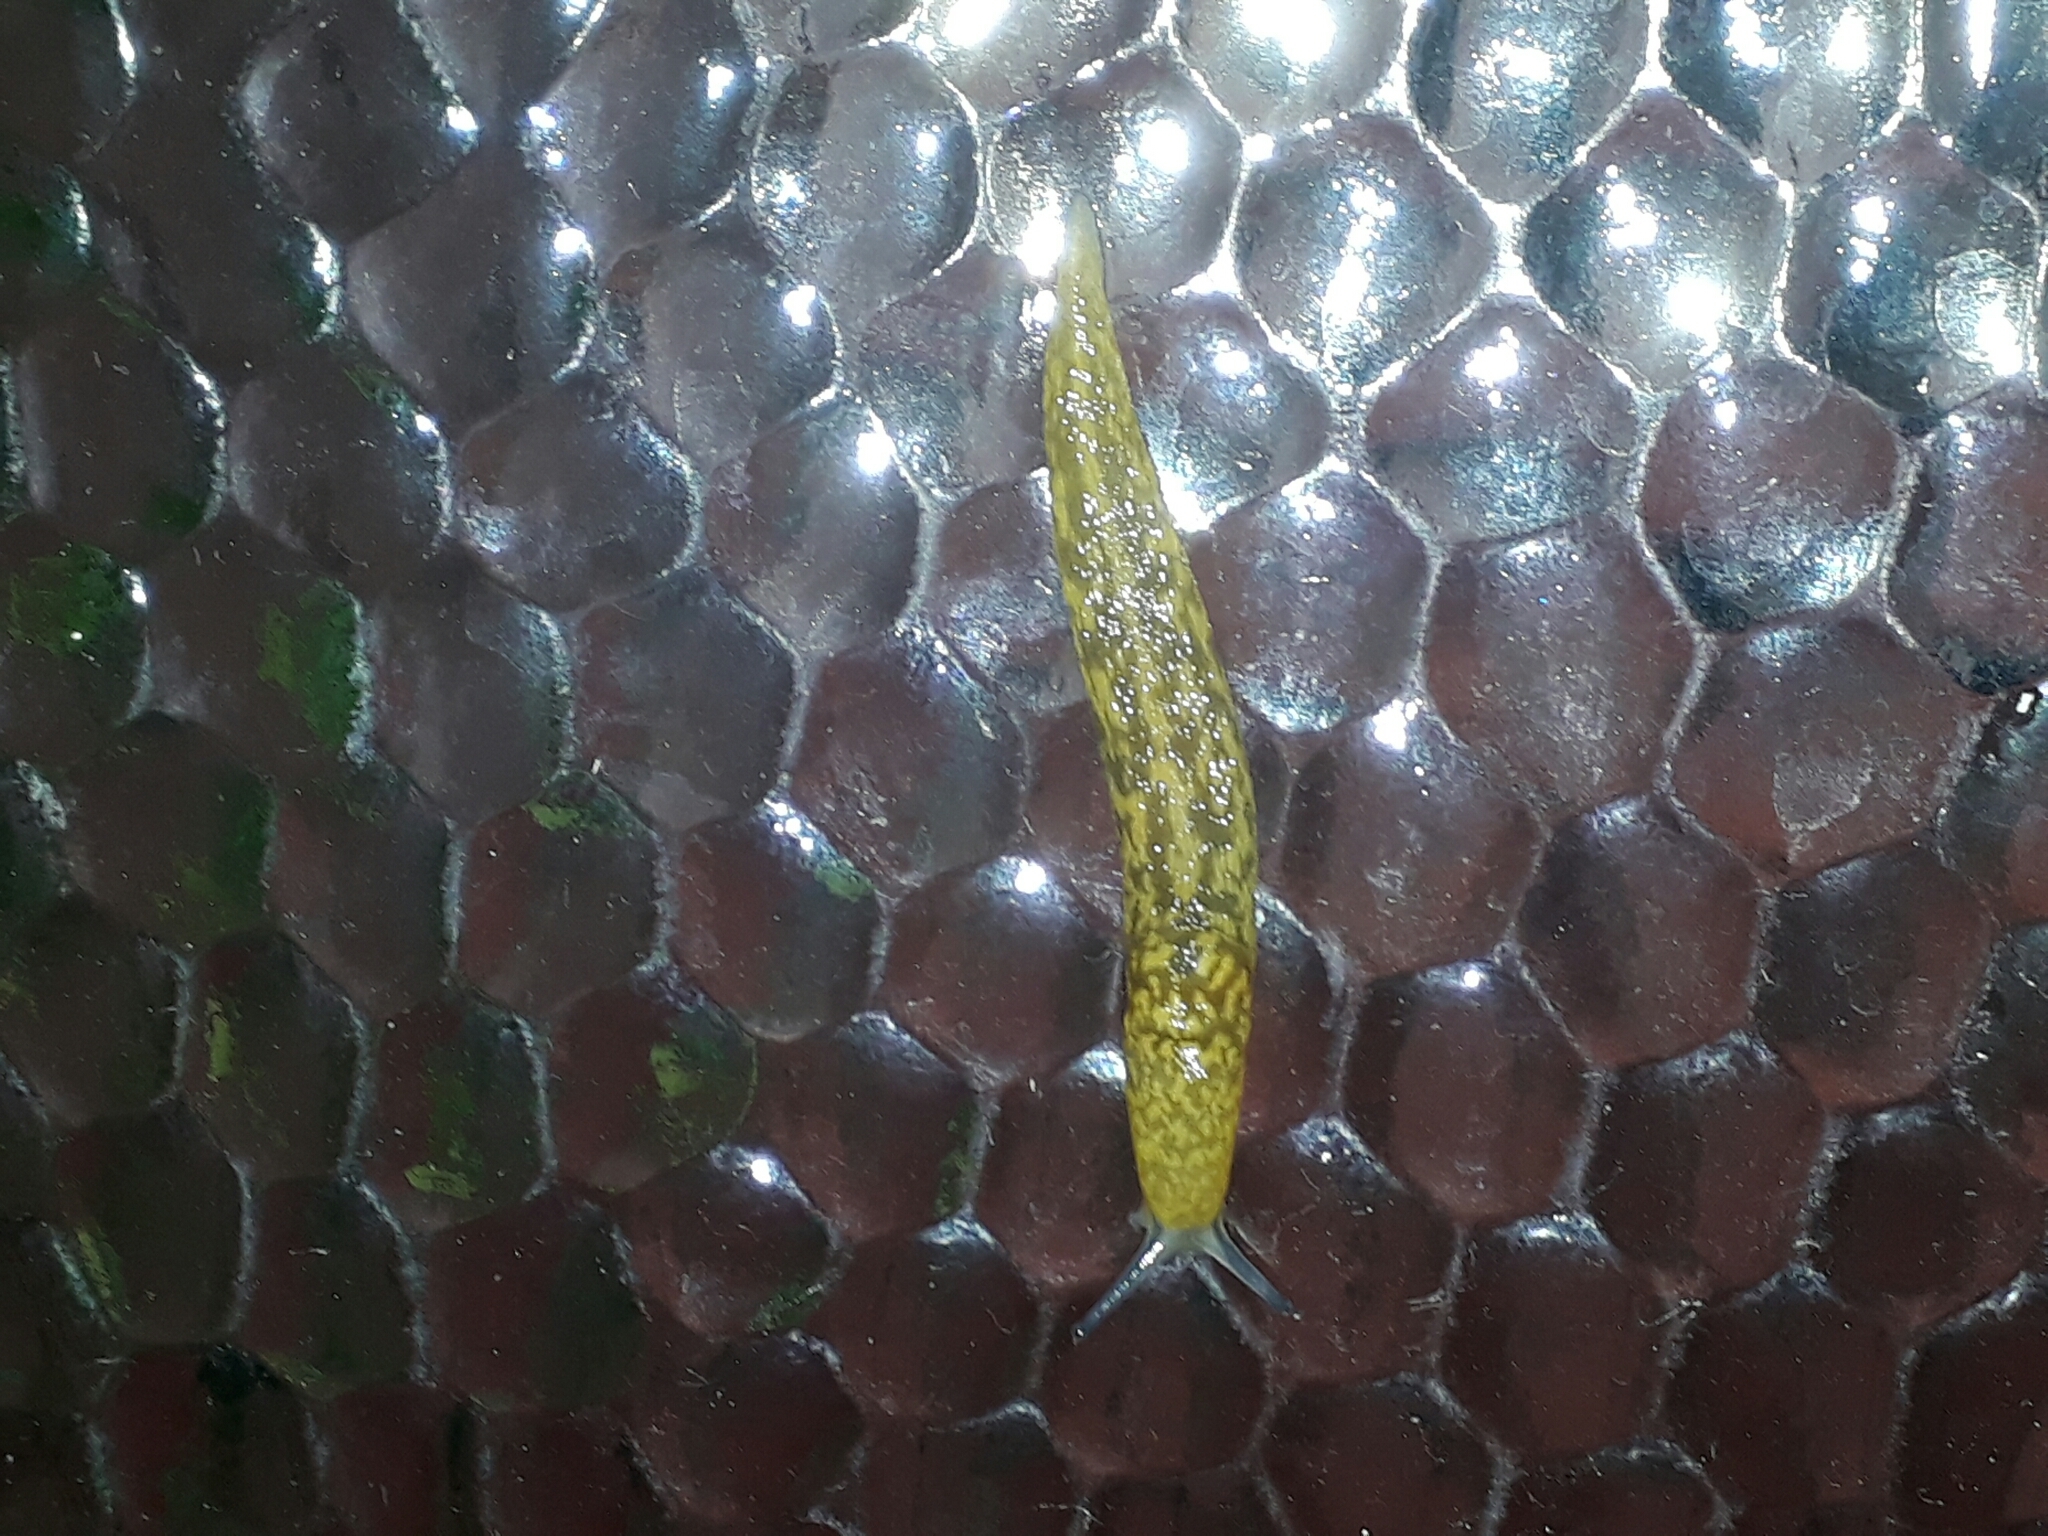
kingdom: Animalia
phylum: Mollusca
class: Gastropoda
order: Stylommatophora
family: Limacidae
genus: Limacus
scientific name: Limacus flavus
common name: Yellow gardenslug
